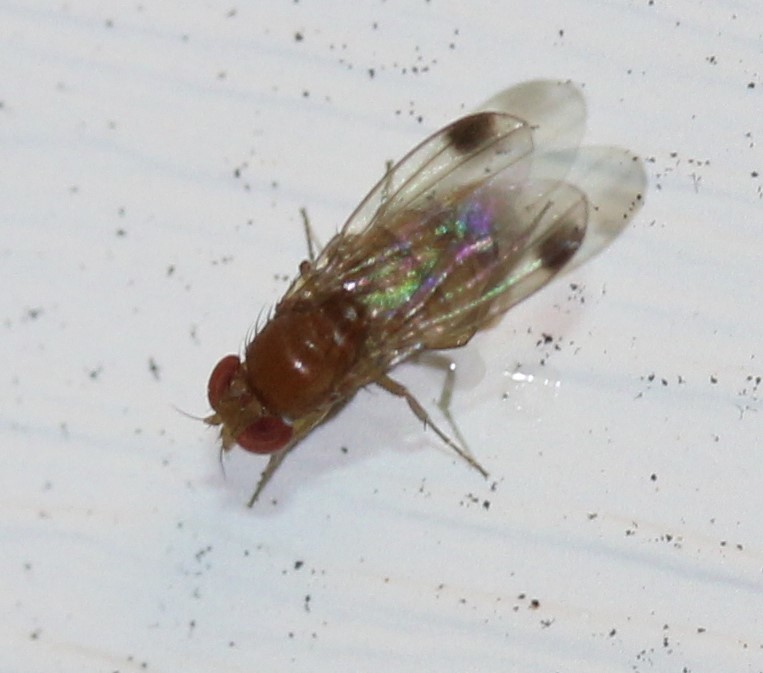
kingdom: Animalia
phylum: Arthropoda
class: Insecta
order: Diptera
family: Drosophilidae
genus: Drosophila
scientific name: Drosophila suzukii
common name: Spotted-wing drosophila
